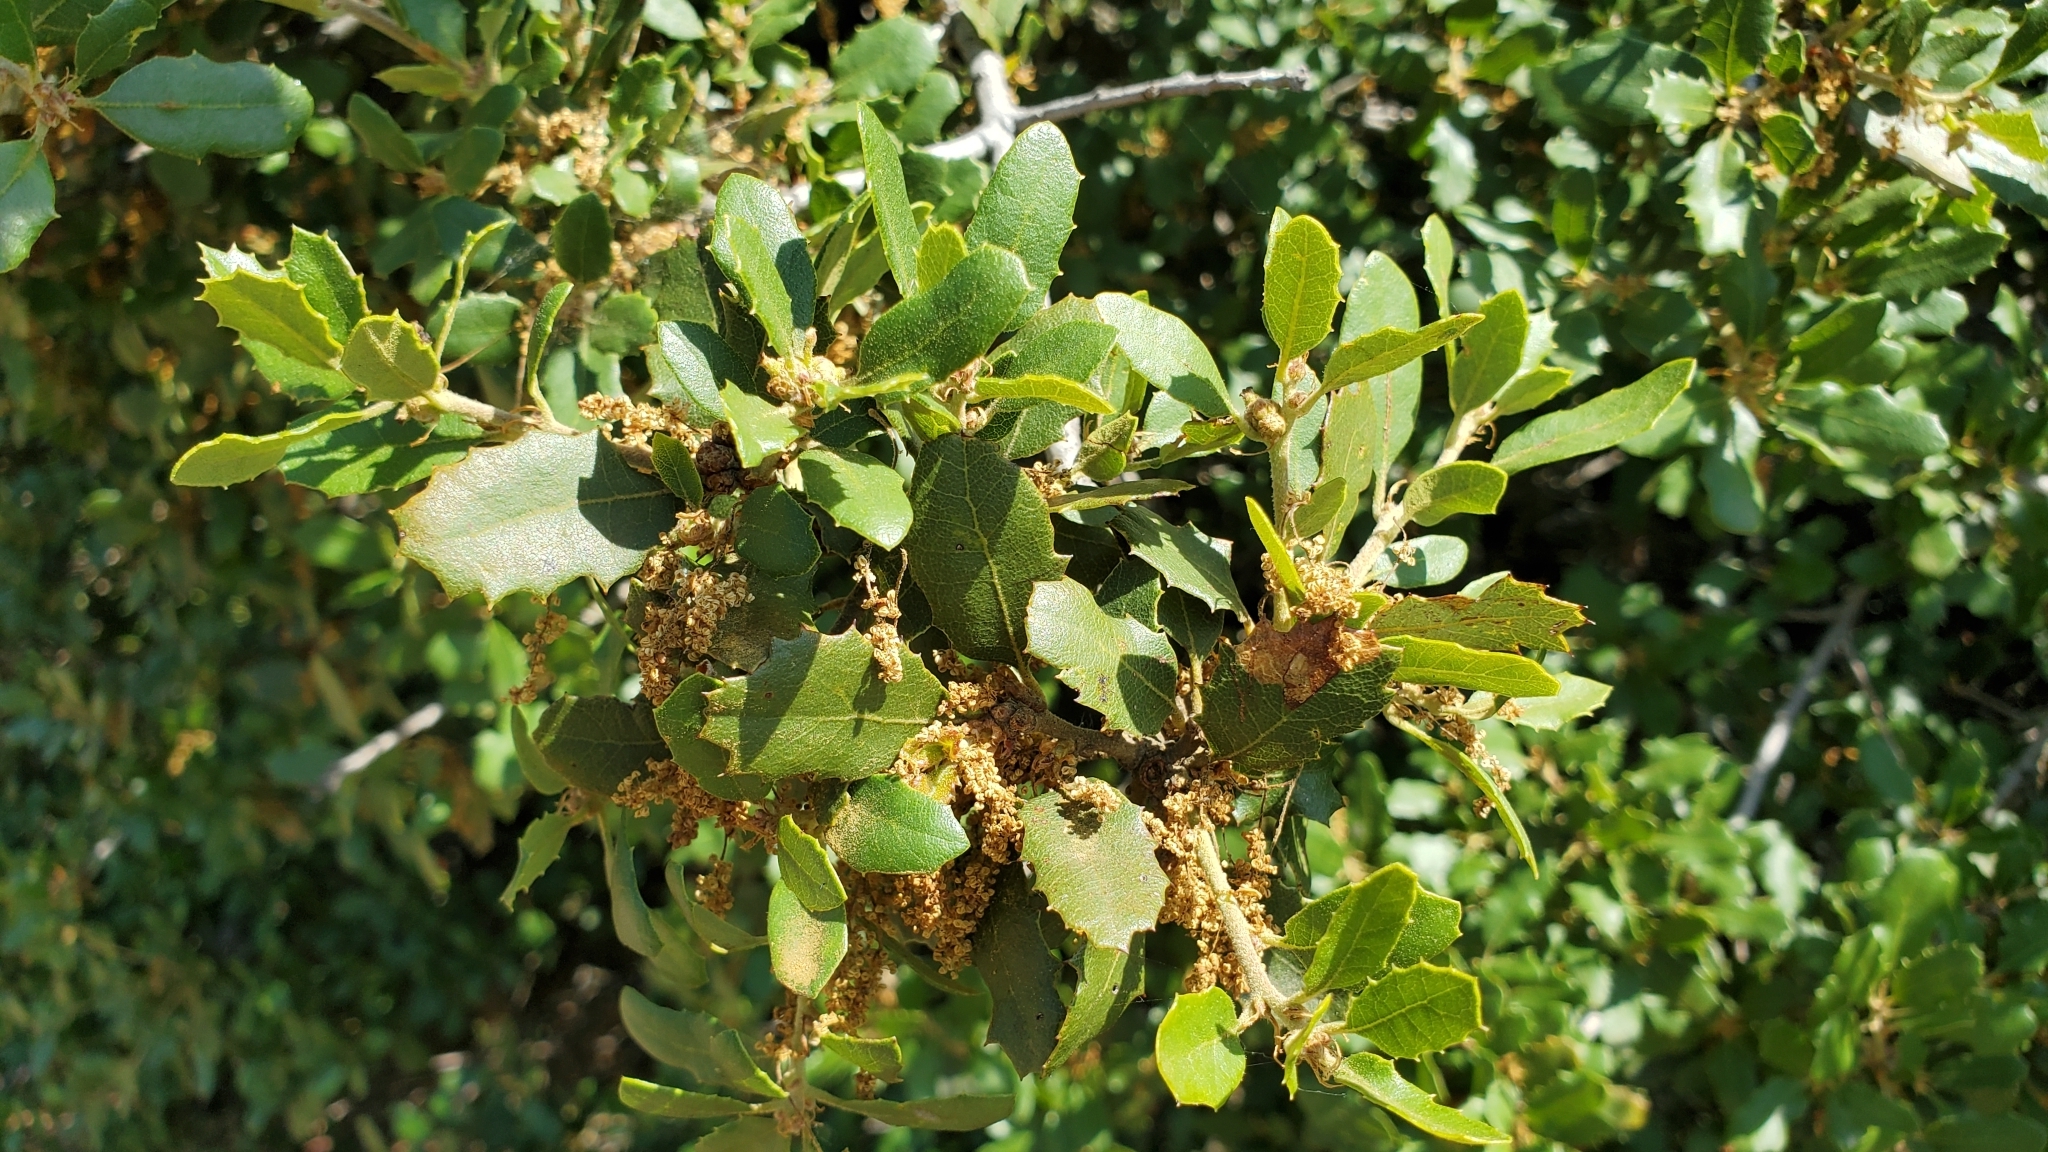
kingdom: Plantae
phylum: Tracheophyta
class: Magnoliopsida
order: Fagales
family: Fagaceae
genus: Quercus
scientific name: Quercus berberidifolia
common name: California scrub oak
